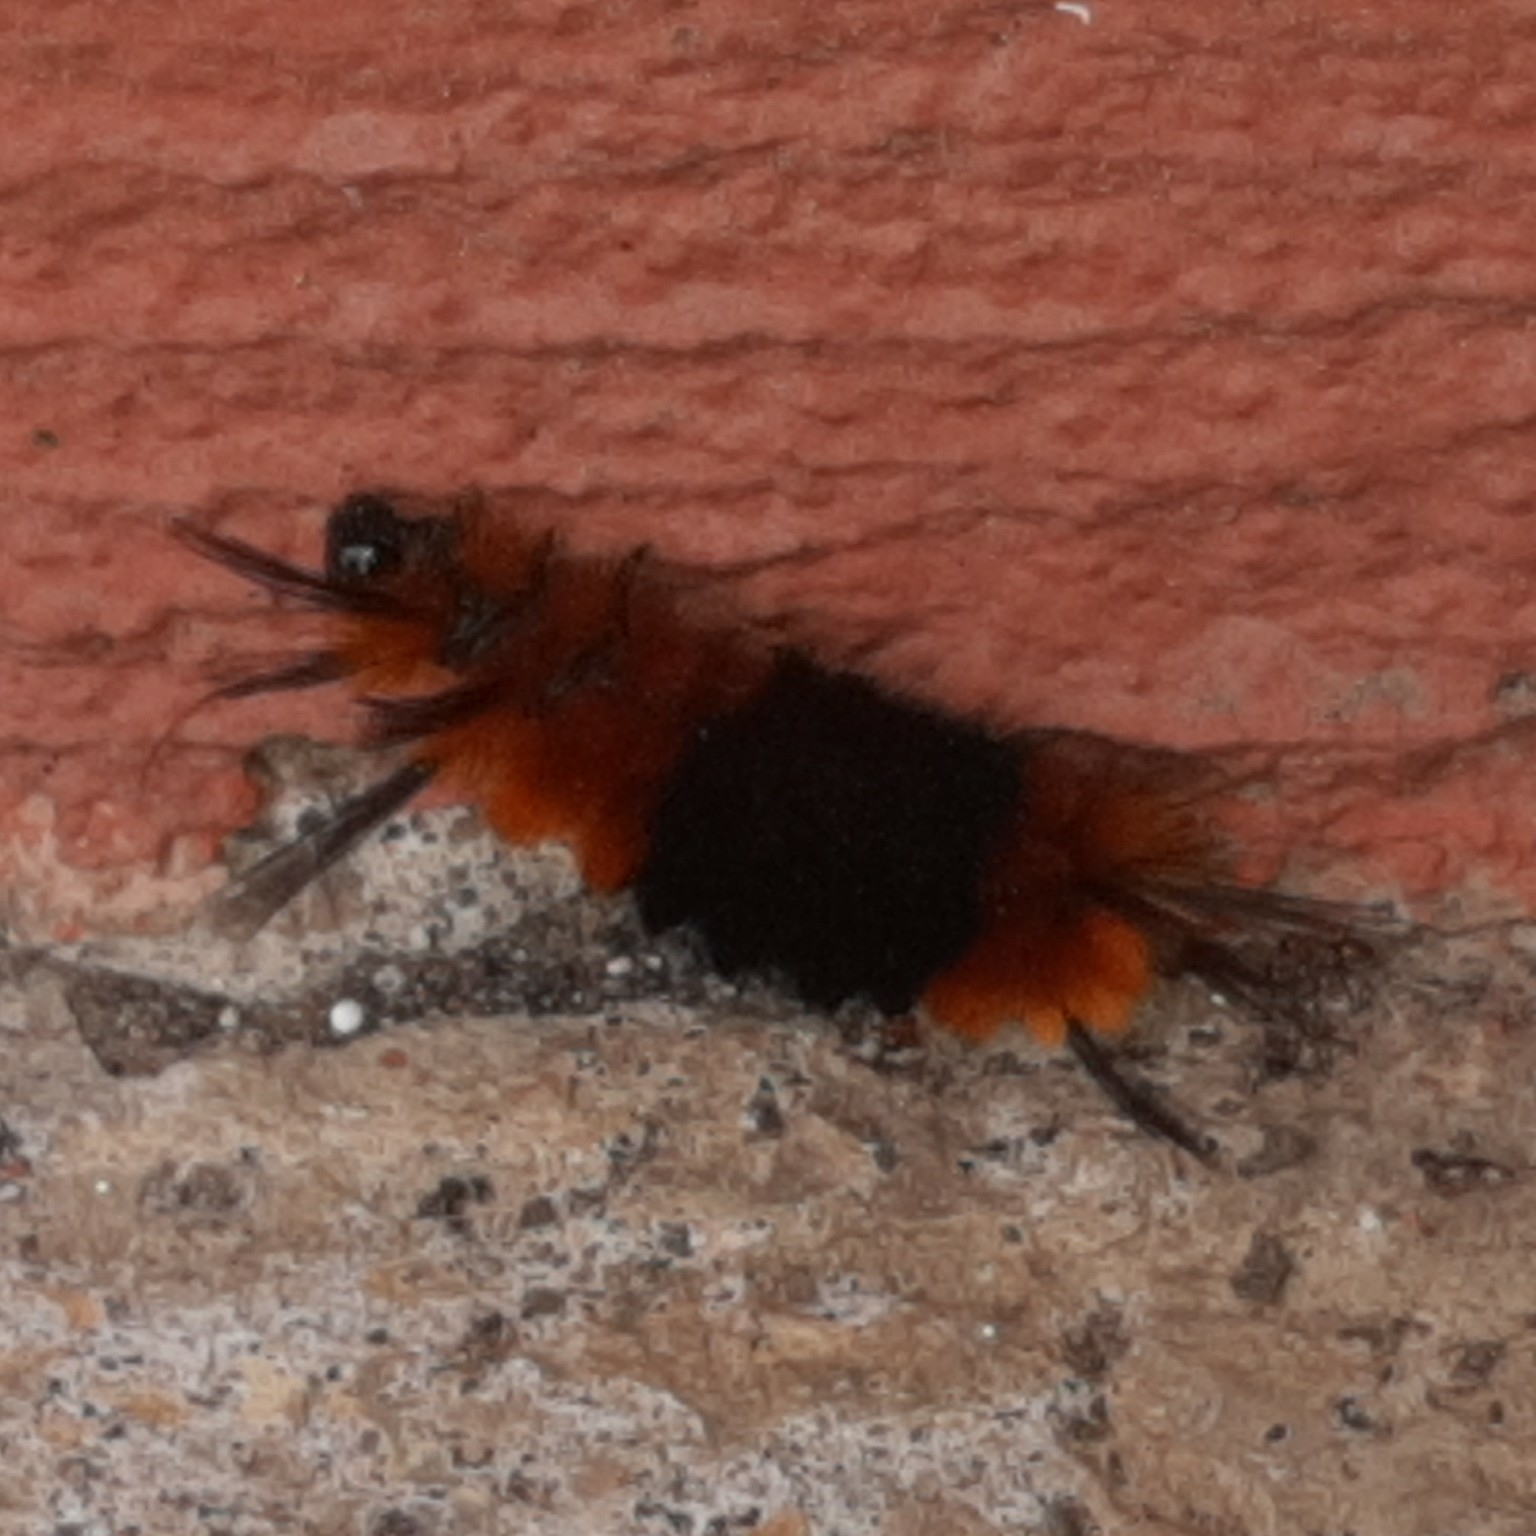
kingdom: Animalia
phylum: Arthropoda
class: Insecta
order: Lepidoptera
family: Erebidae
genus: Turuptiana
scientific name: Turuptiana
